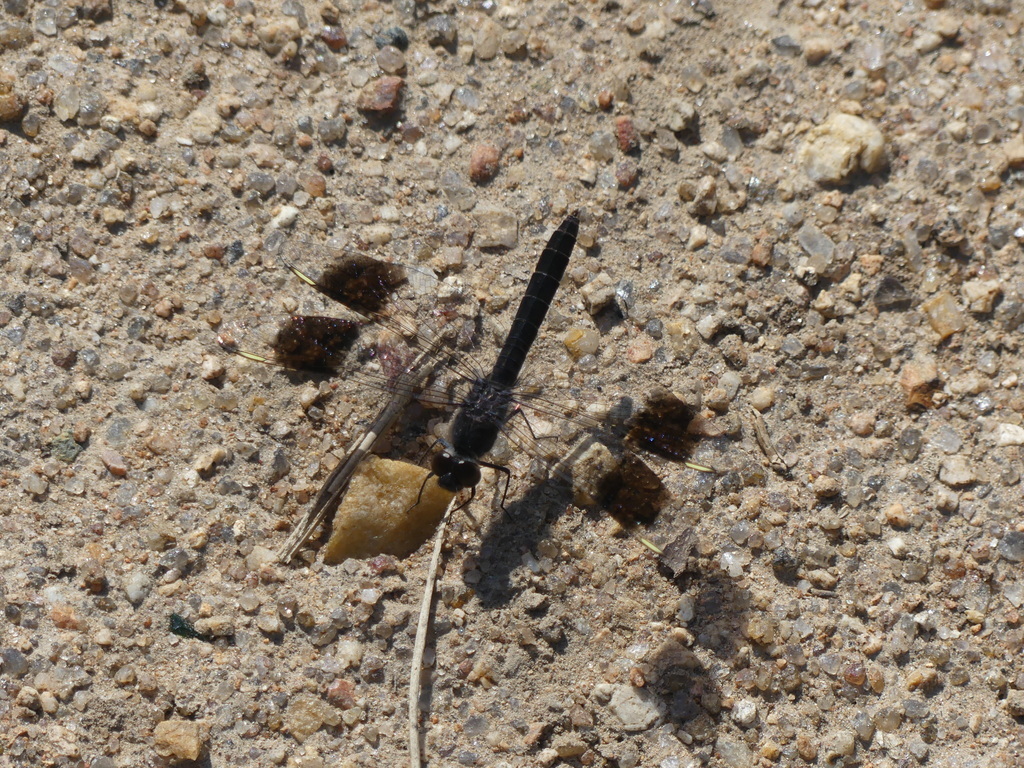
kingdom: Animalia
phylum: Arthropoda
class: Insecta
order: Odonata
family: Libellulidae
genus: Brachythemis
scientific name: Brachythemis leucosticta
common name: Banded groundling
